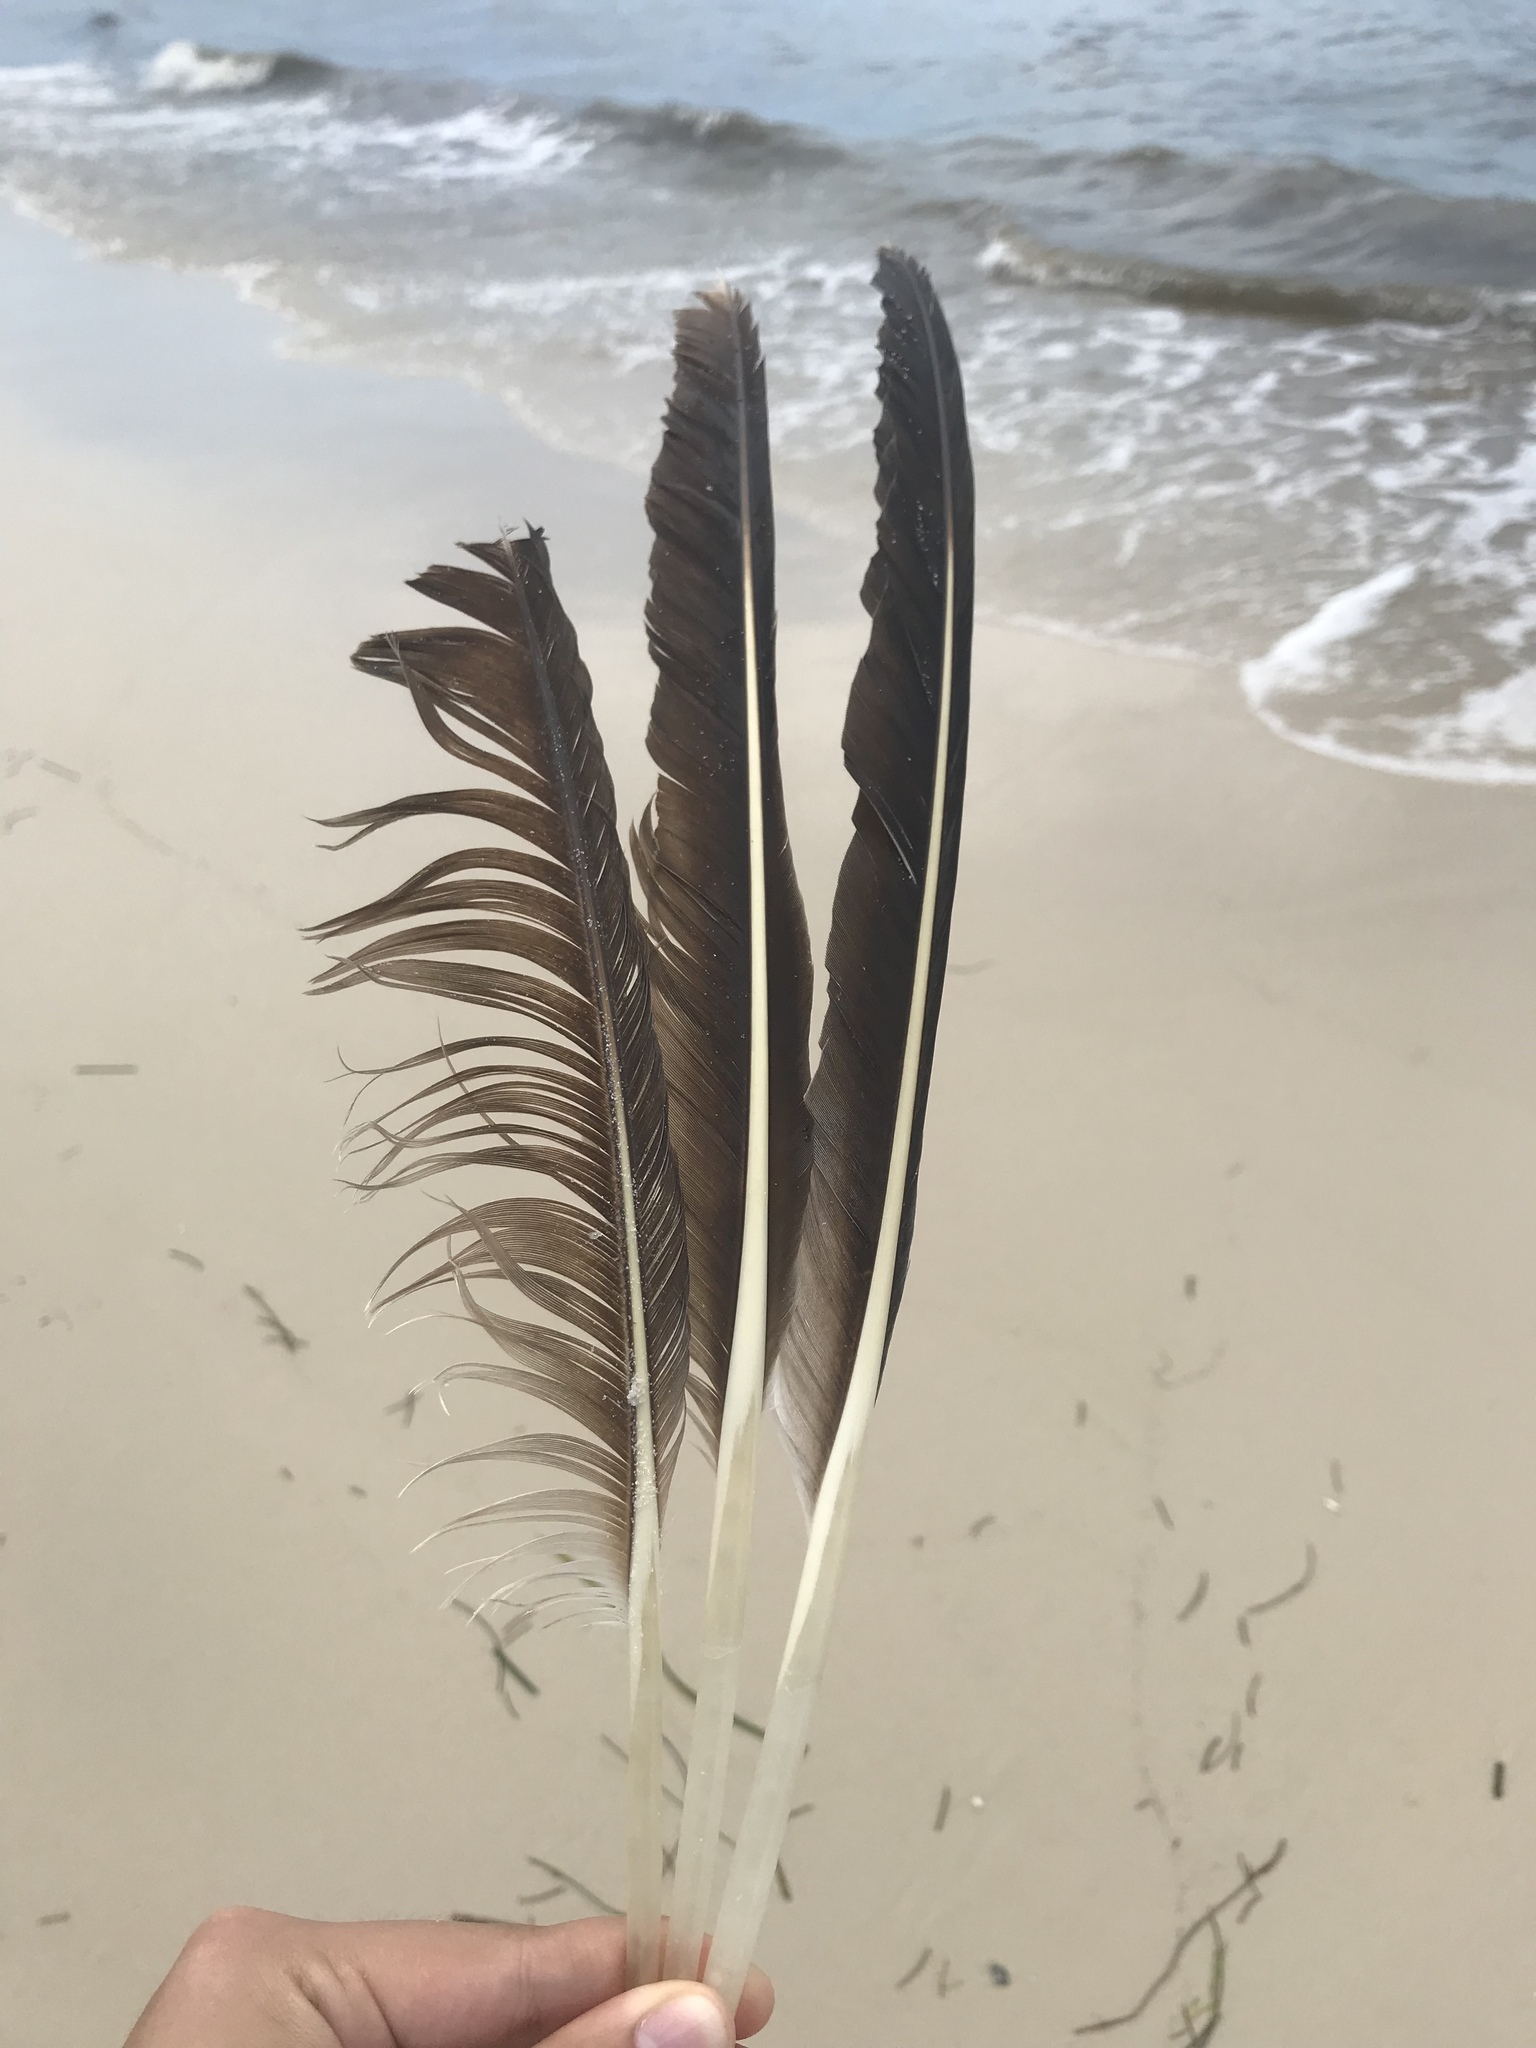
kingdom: Animalia
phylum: Chordata
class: Aves
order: Pelecaniformes
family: Pelecanidae
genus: Pelecanus
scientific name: Pelecanus occidentalis
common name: Brown pelican
